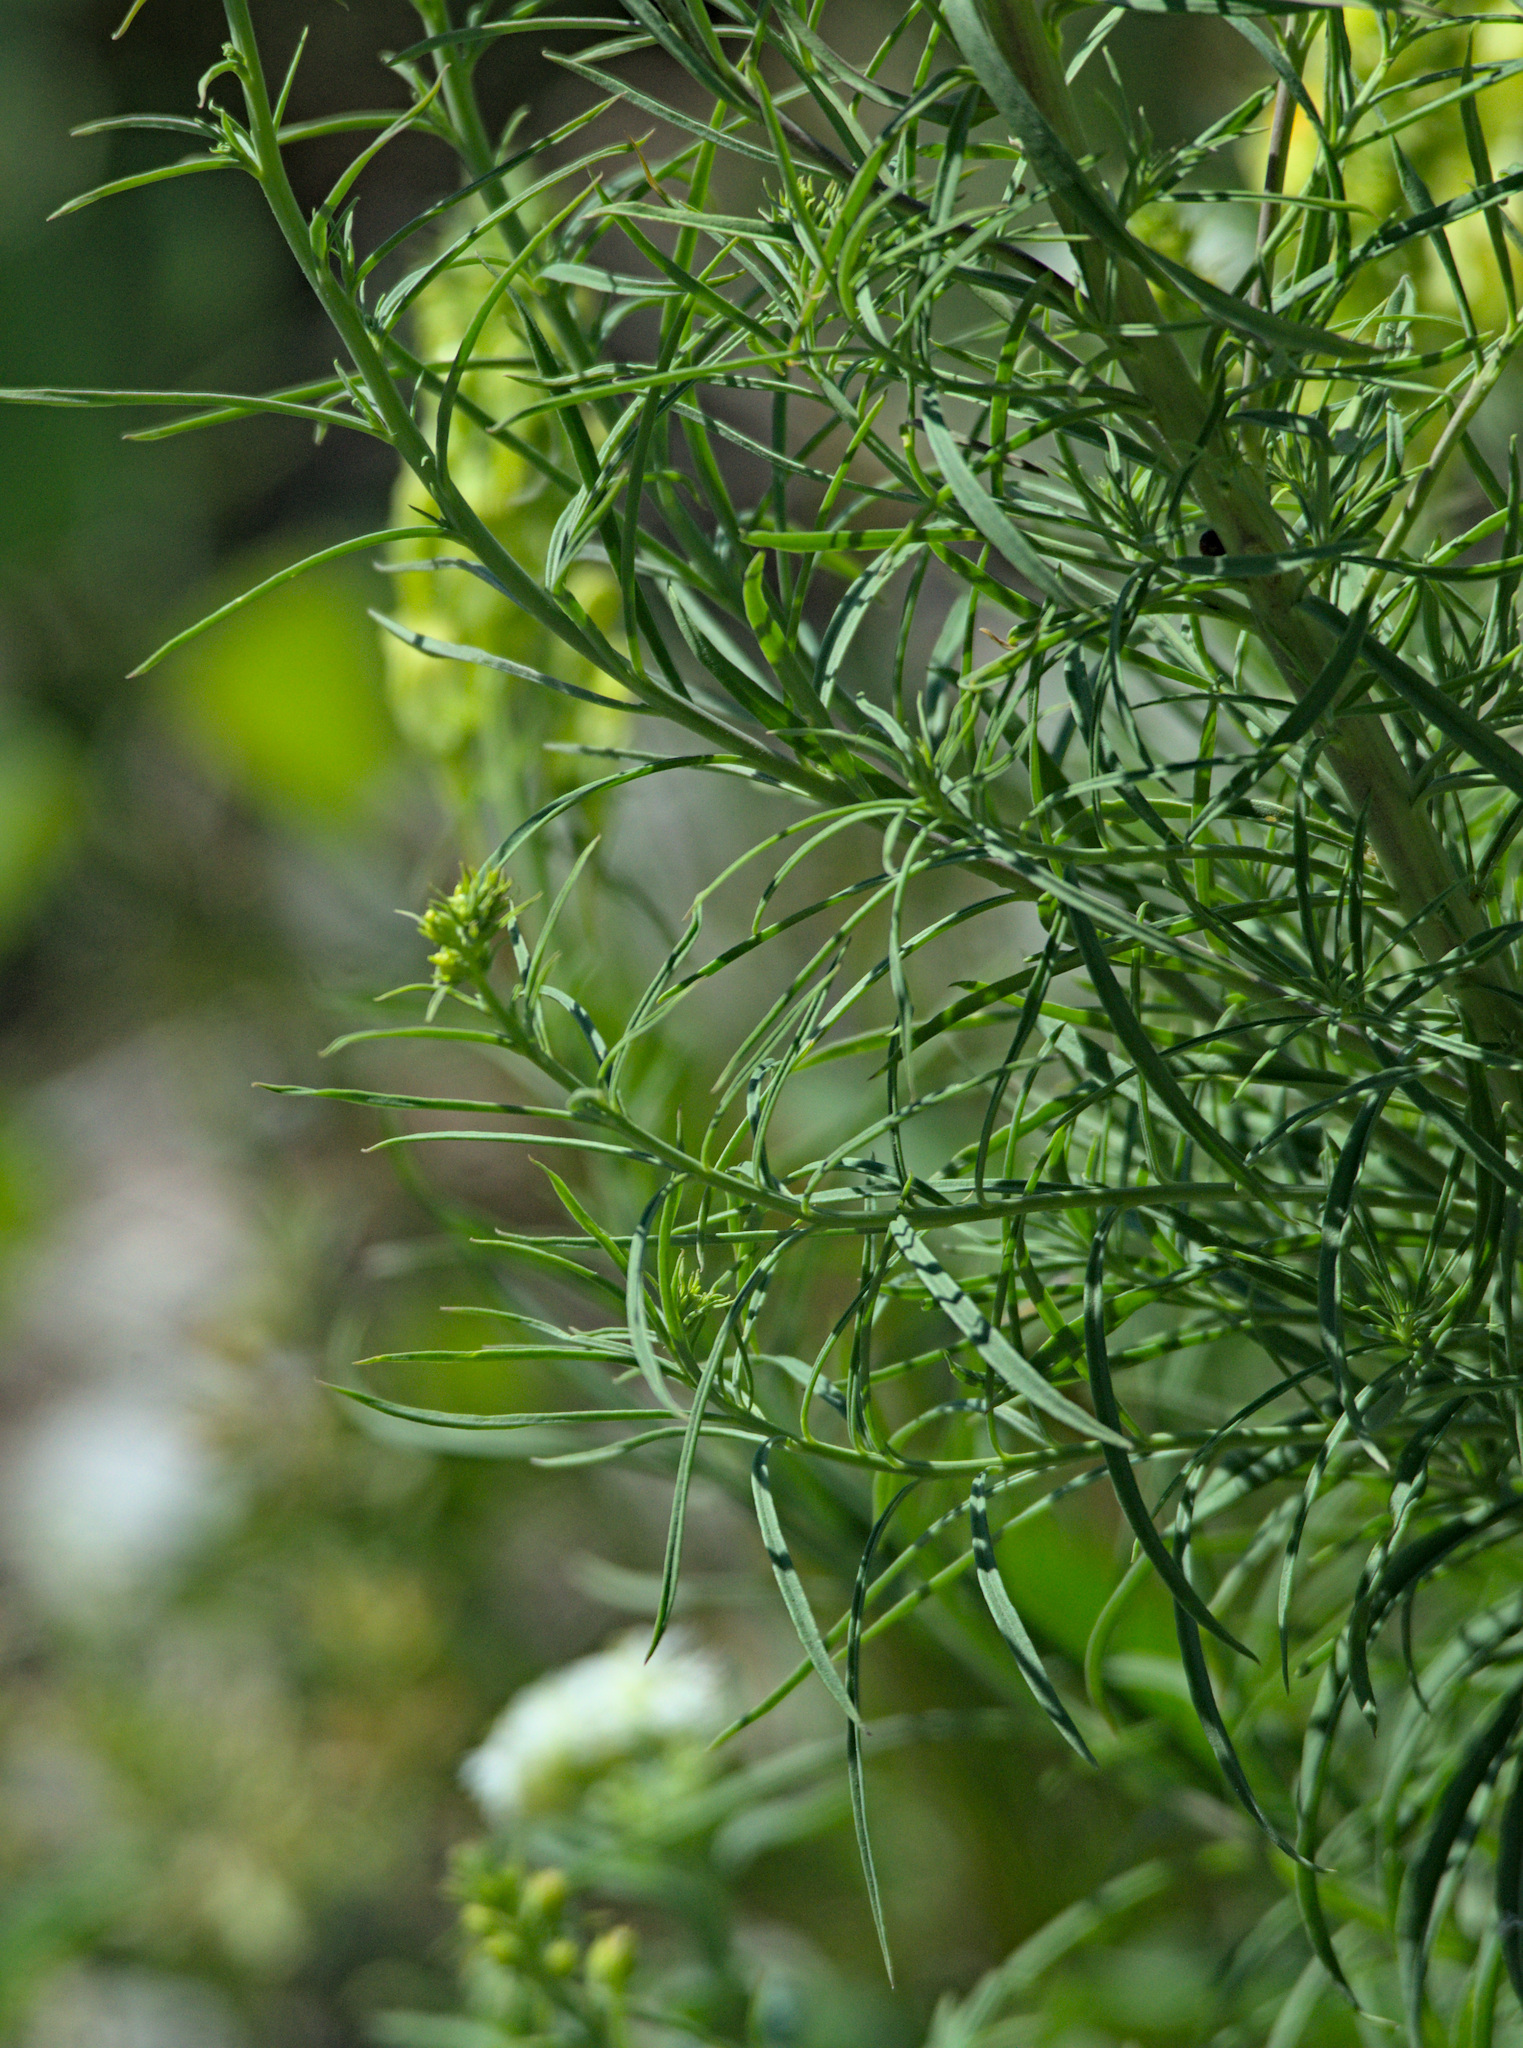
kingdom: Plantae
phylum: Tracheophyta
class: Magnoliopsida
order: Lamiales
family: Plantaginaceae
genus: Linaria
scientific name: Linaria vulgaris
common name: Butter and eggs
